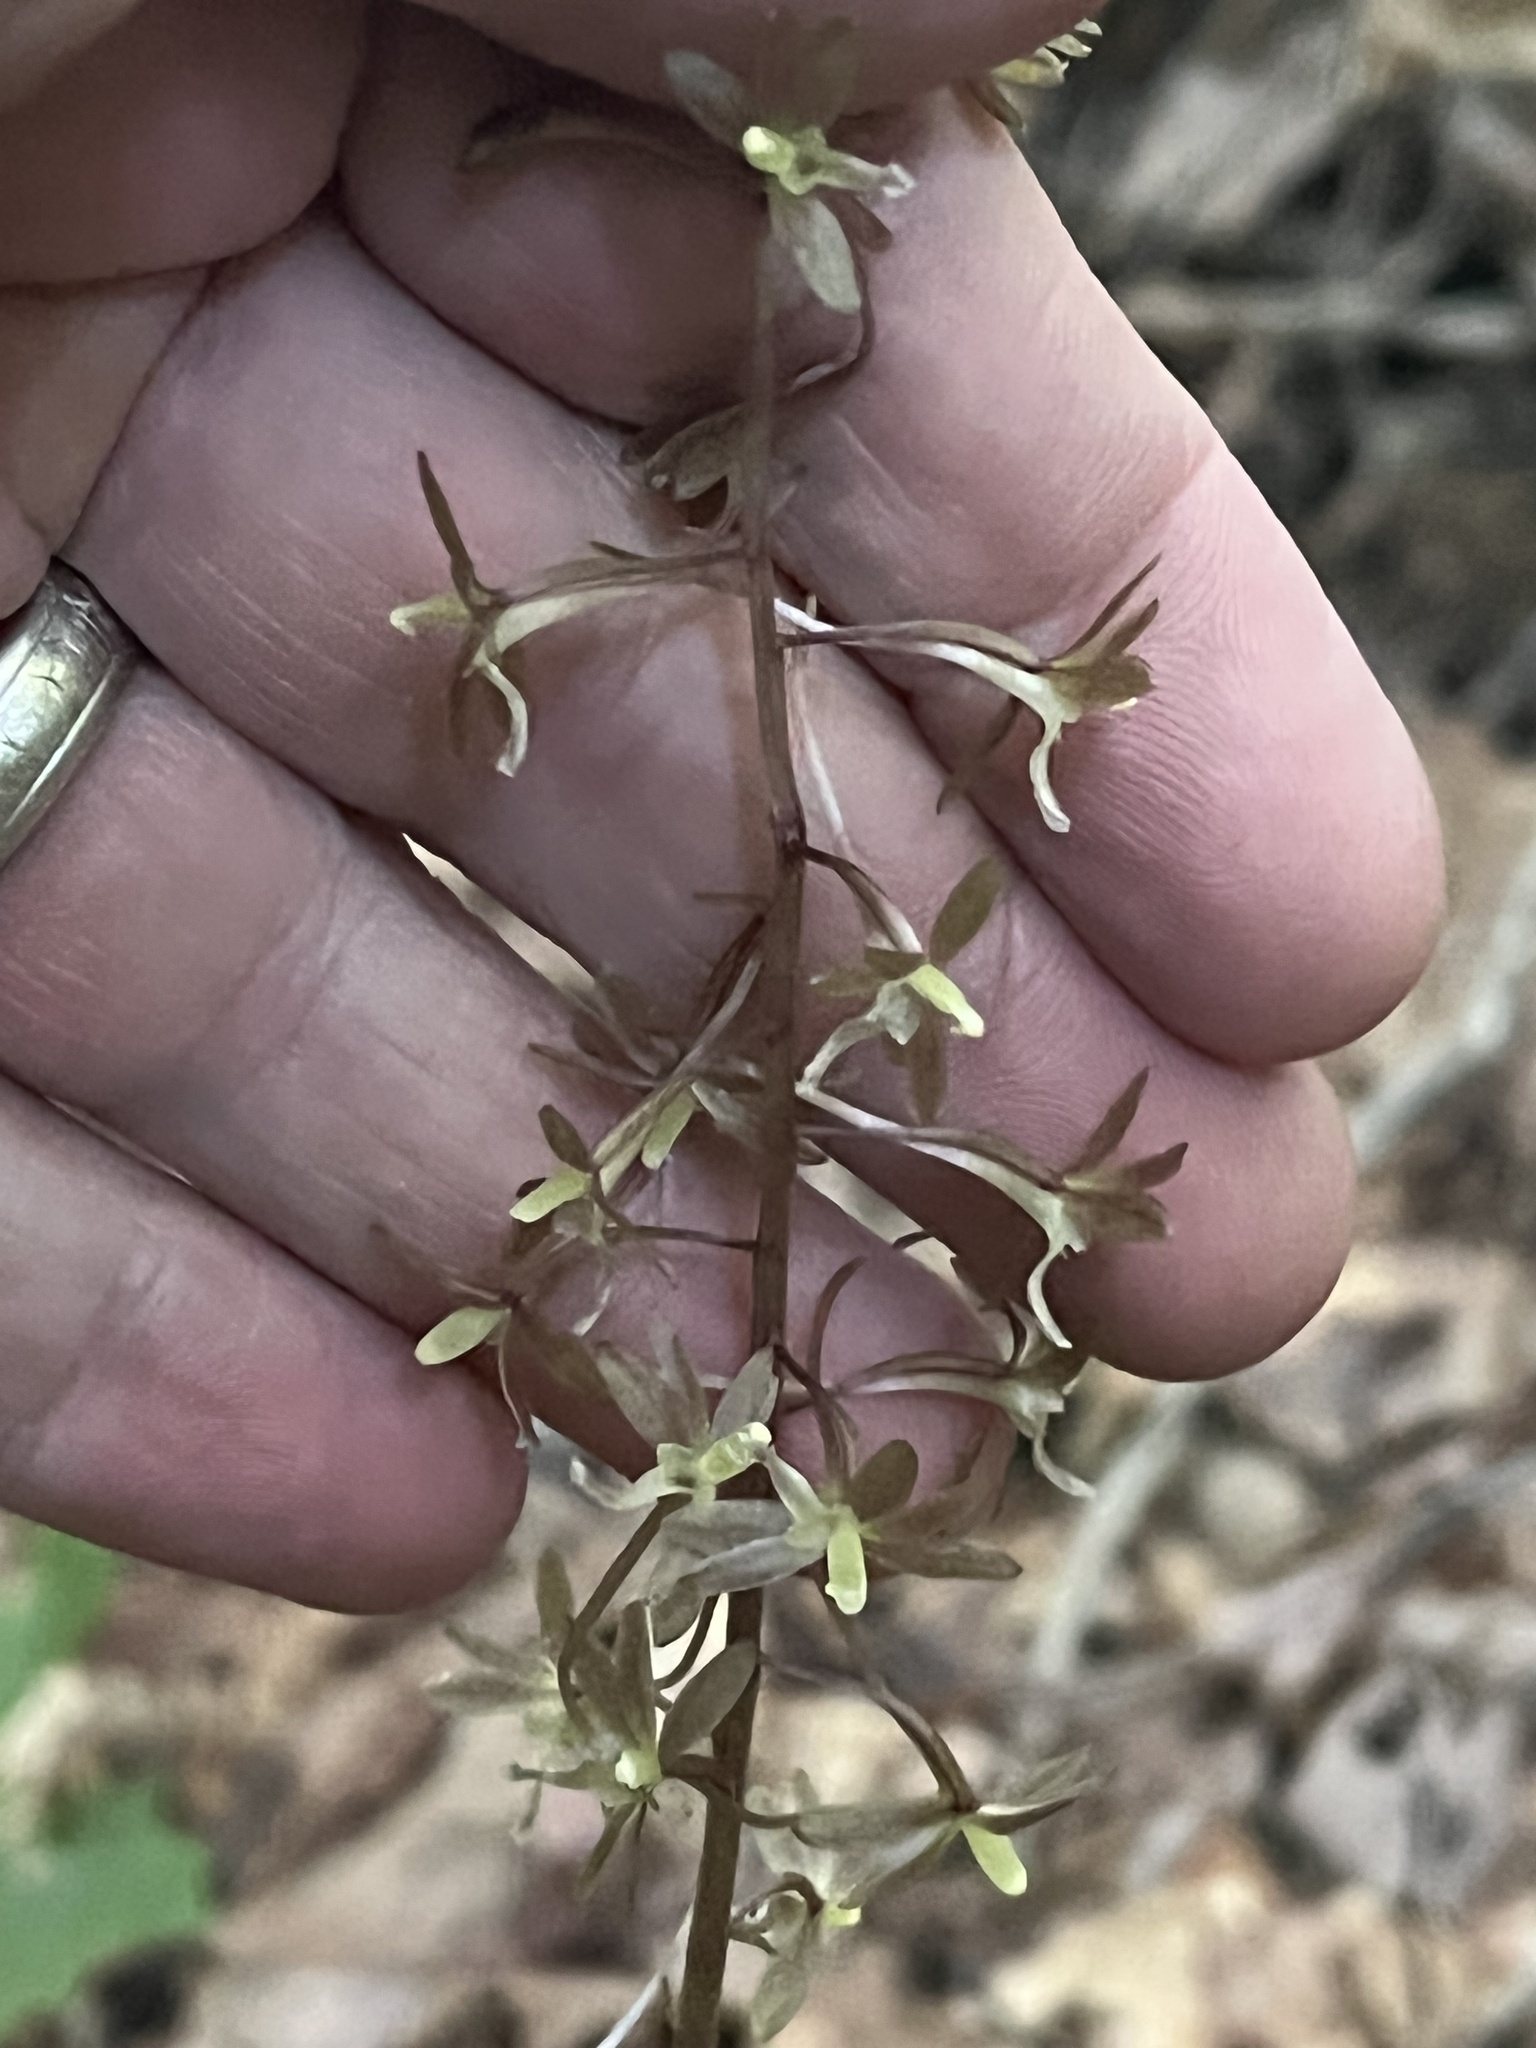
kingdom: Plantae
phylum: Tracheophyta
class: Liliopsida
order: Asparagales
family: Orchidaceae
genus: Tipularia
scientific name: Tipularia discolor
